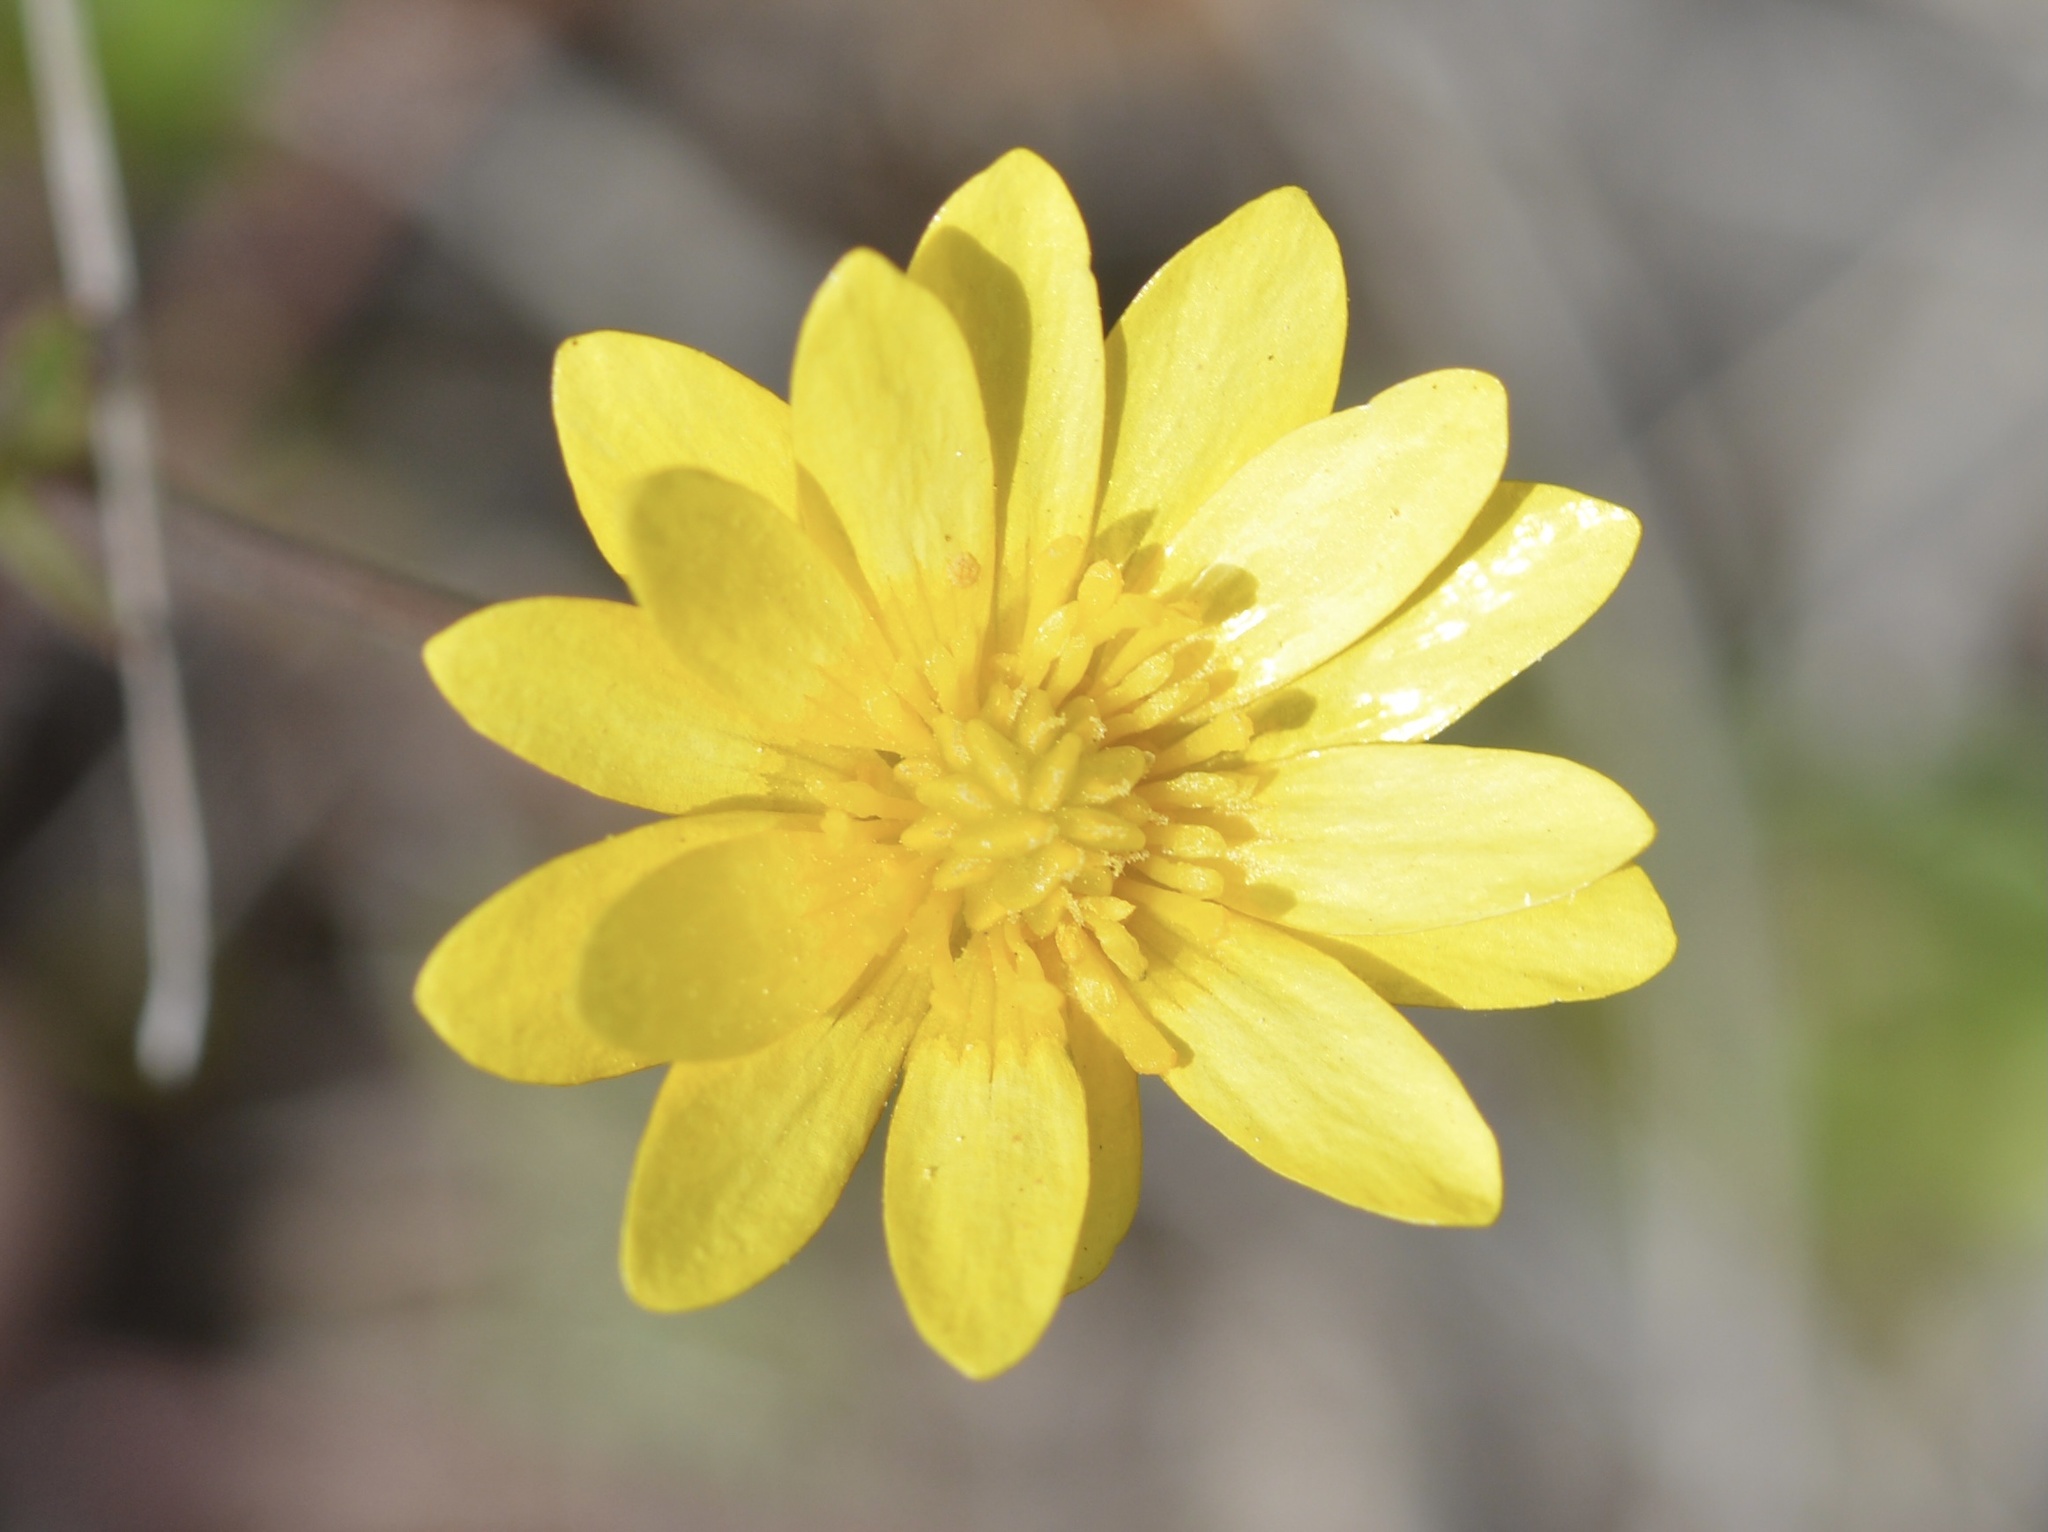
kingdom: Plantae
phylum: Tracheophyta
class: Magnoliopsida
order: Ranunculales
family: Ranunculaceae
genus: Ranunculus
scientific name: Ranunculus californicus
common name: California buttercup
